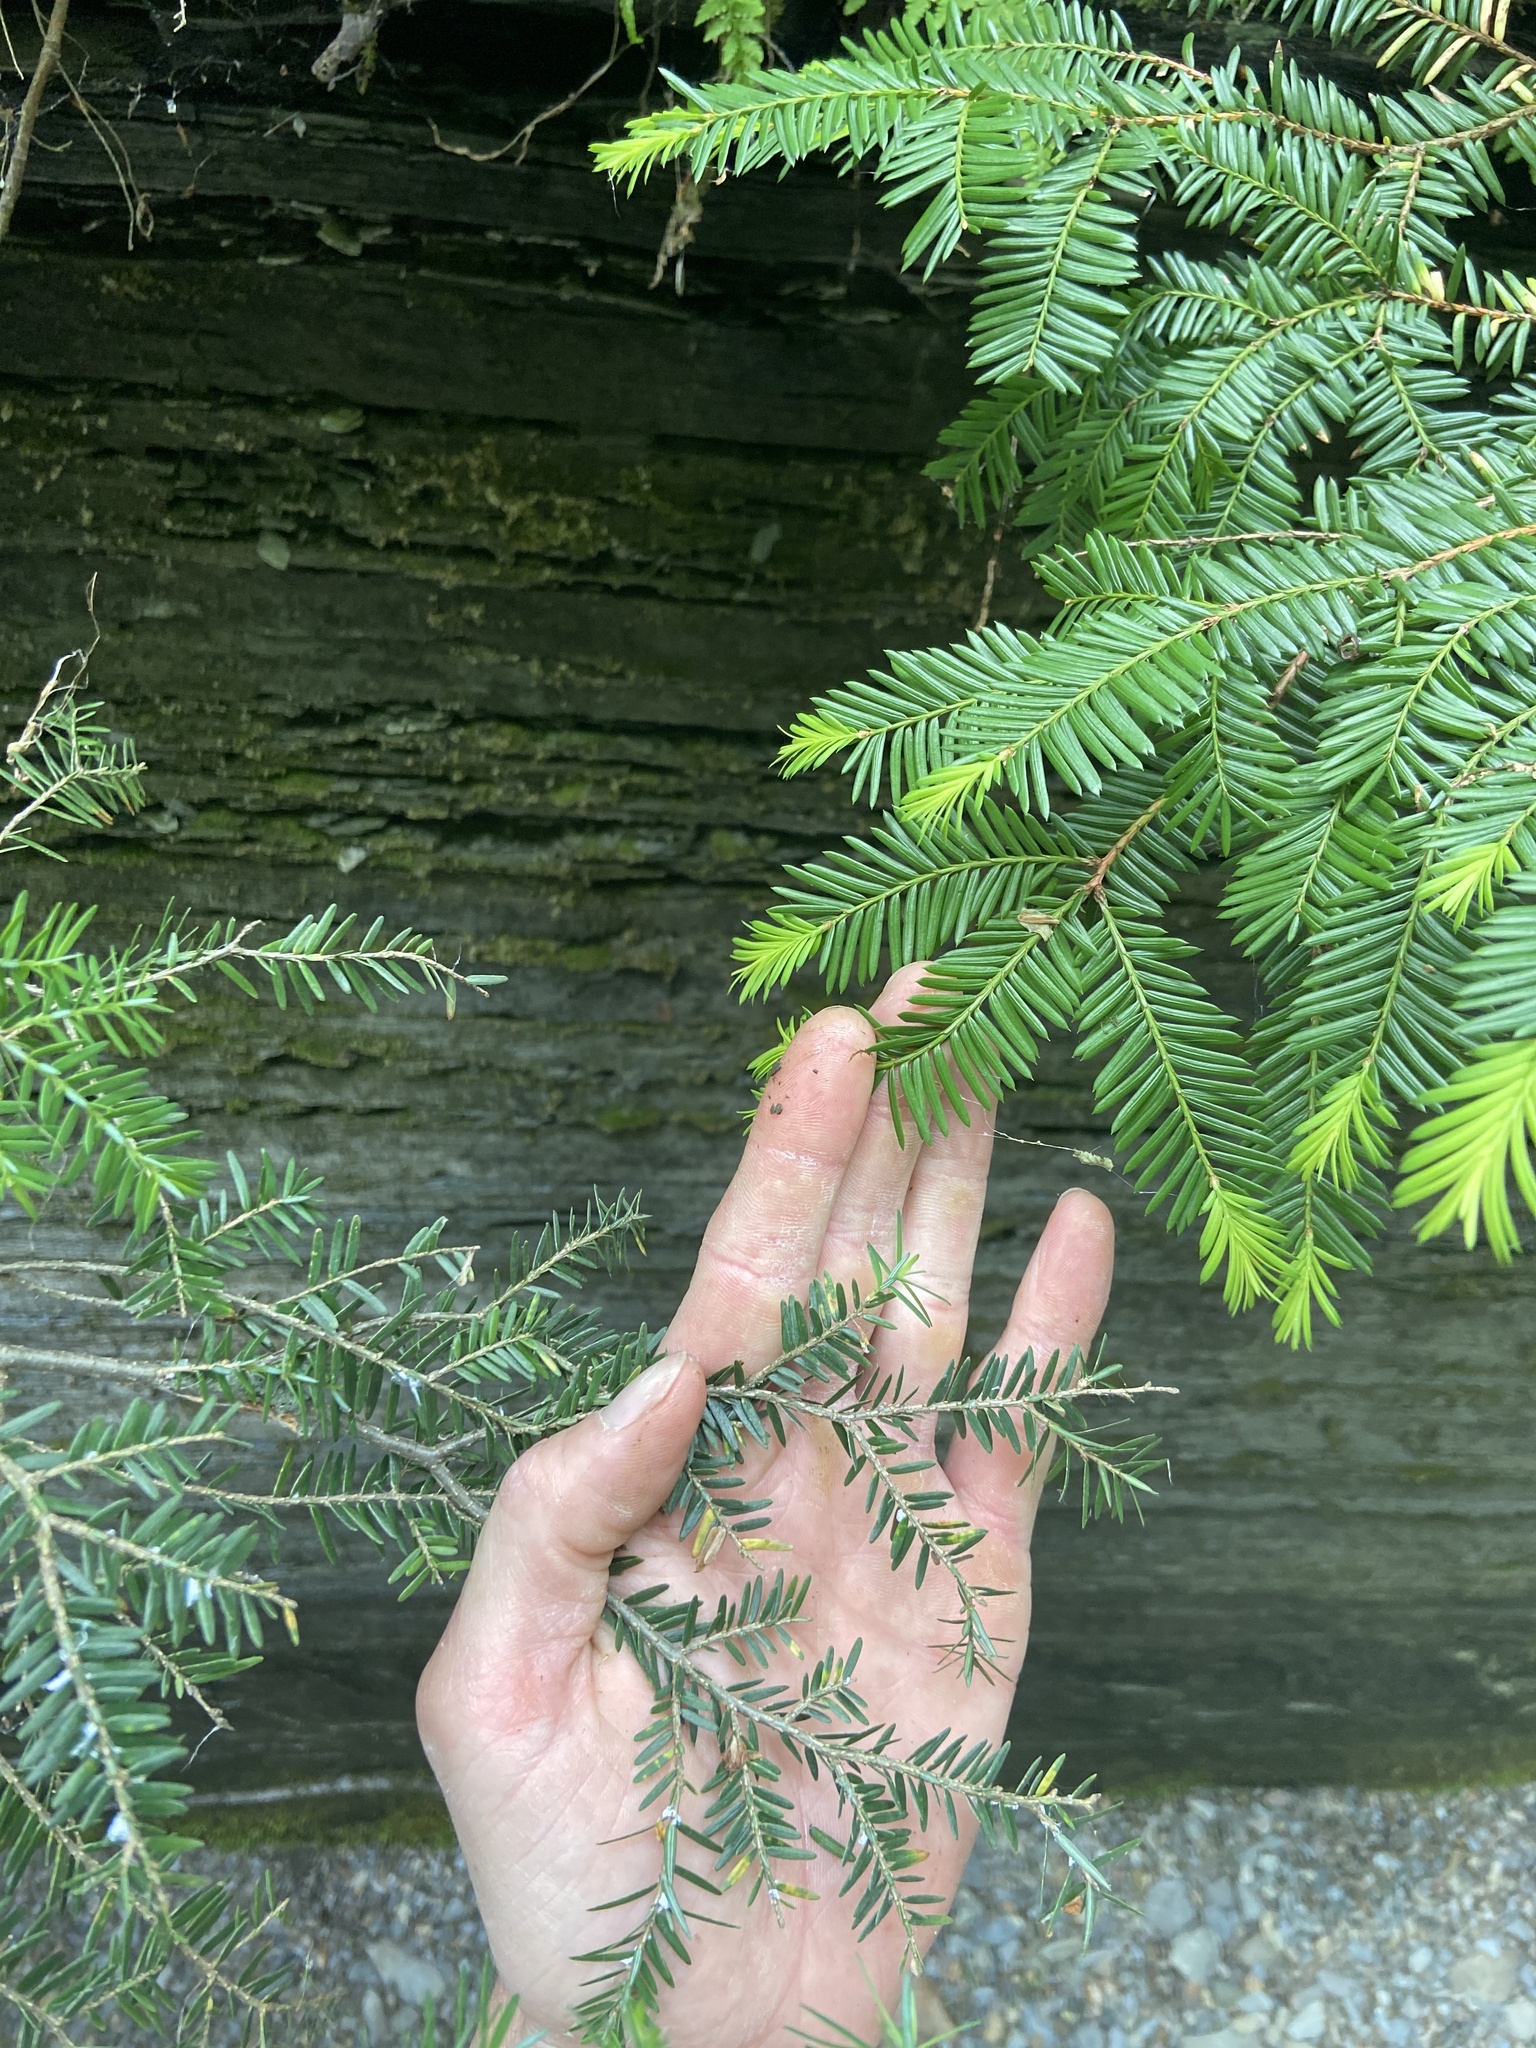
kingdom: Plantae
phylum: Tracheophyta
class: Pinopsida
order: Pinales
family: Taxaceae
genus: Taxus
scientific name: Taxus canadensis
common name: American yew
